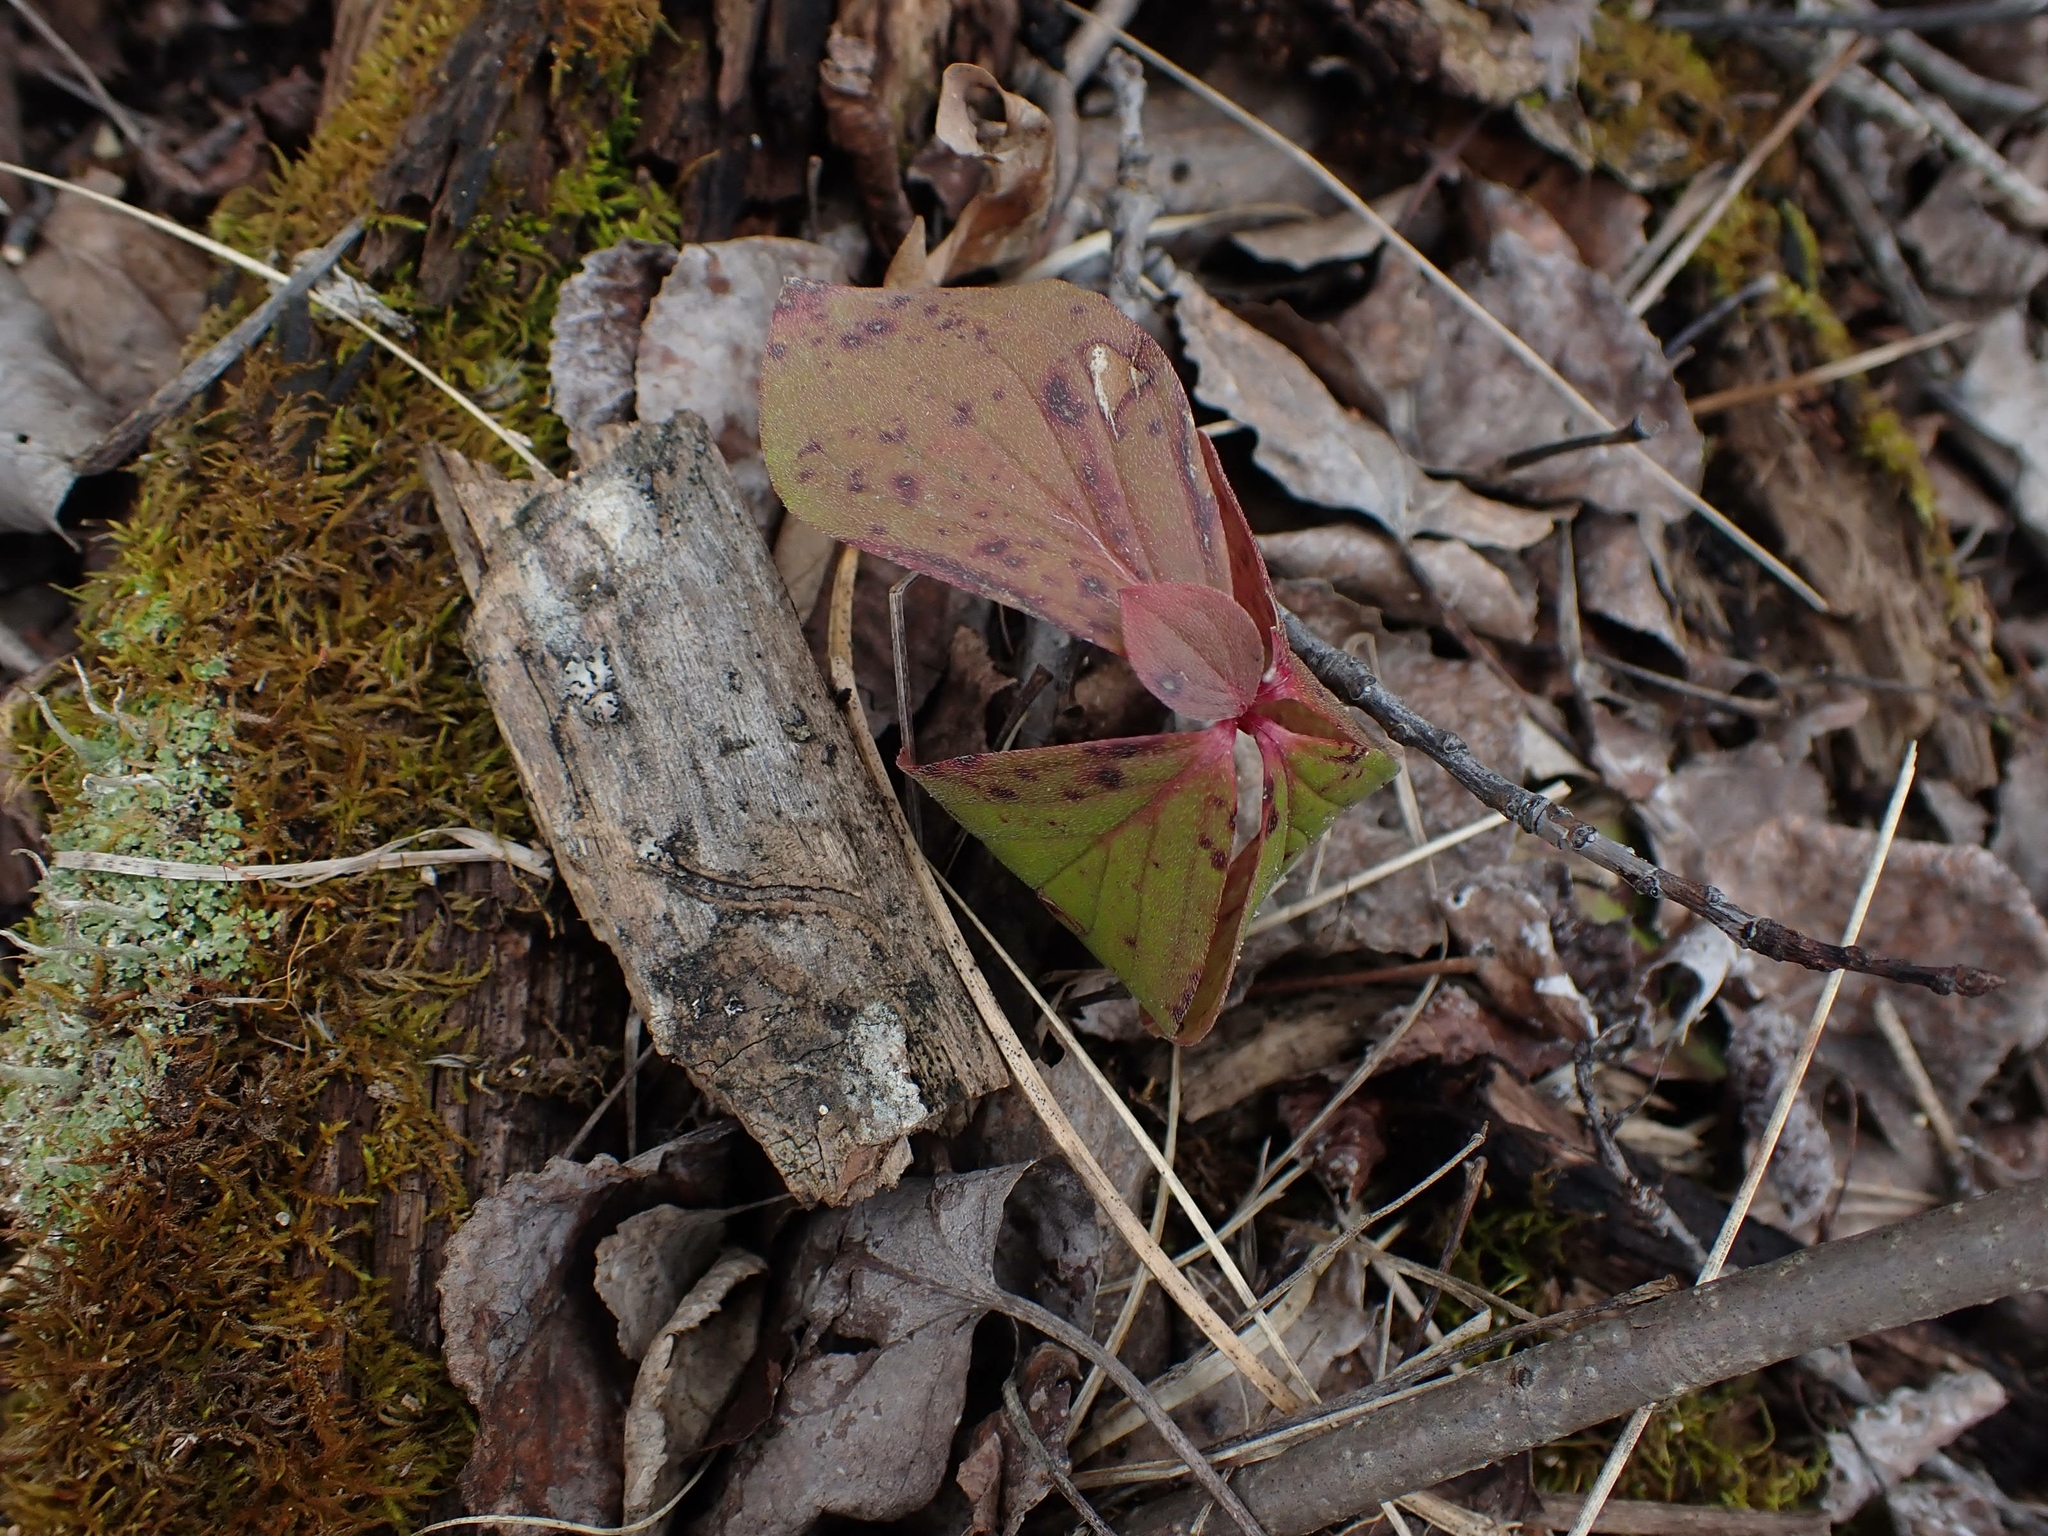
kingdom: Plantae
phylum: Tracheophyta
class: Magnoliopsida
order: Cornales
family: Cornaceae
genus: Cornus
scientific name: Cornus canadensis
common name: Creeping dogwood
